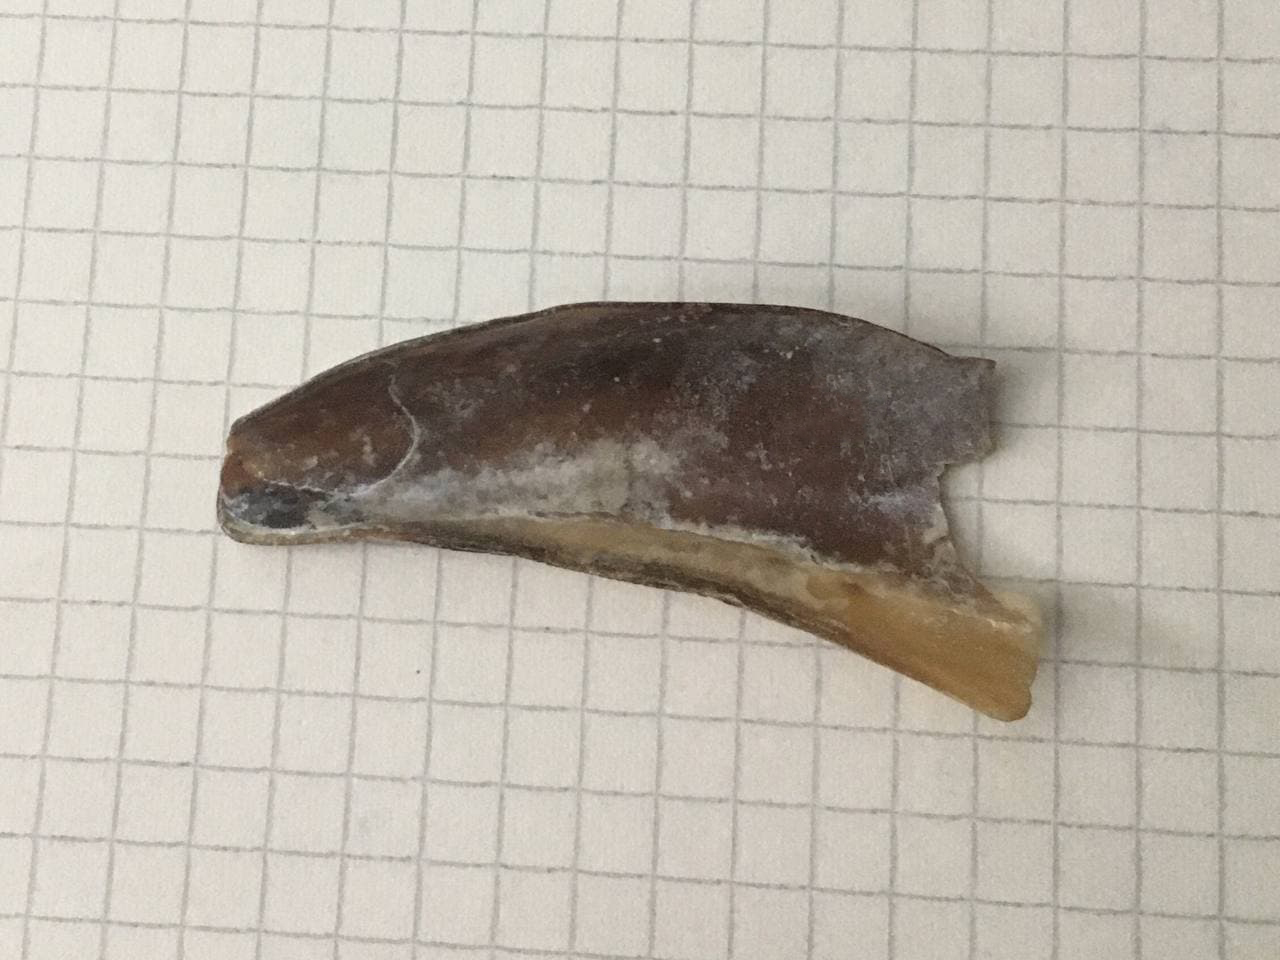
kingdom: Animalia
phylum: Mollusca
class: Bivalvia
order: Ostreida
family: Pinnidae
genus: Atrina
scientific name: Atrina seminuda
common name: Half-naked penshell
